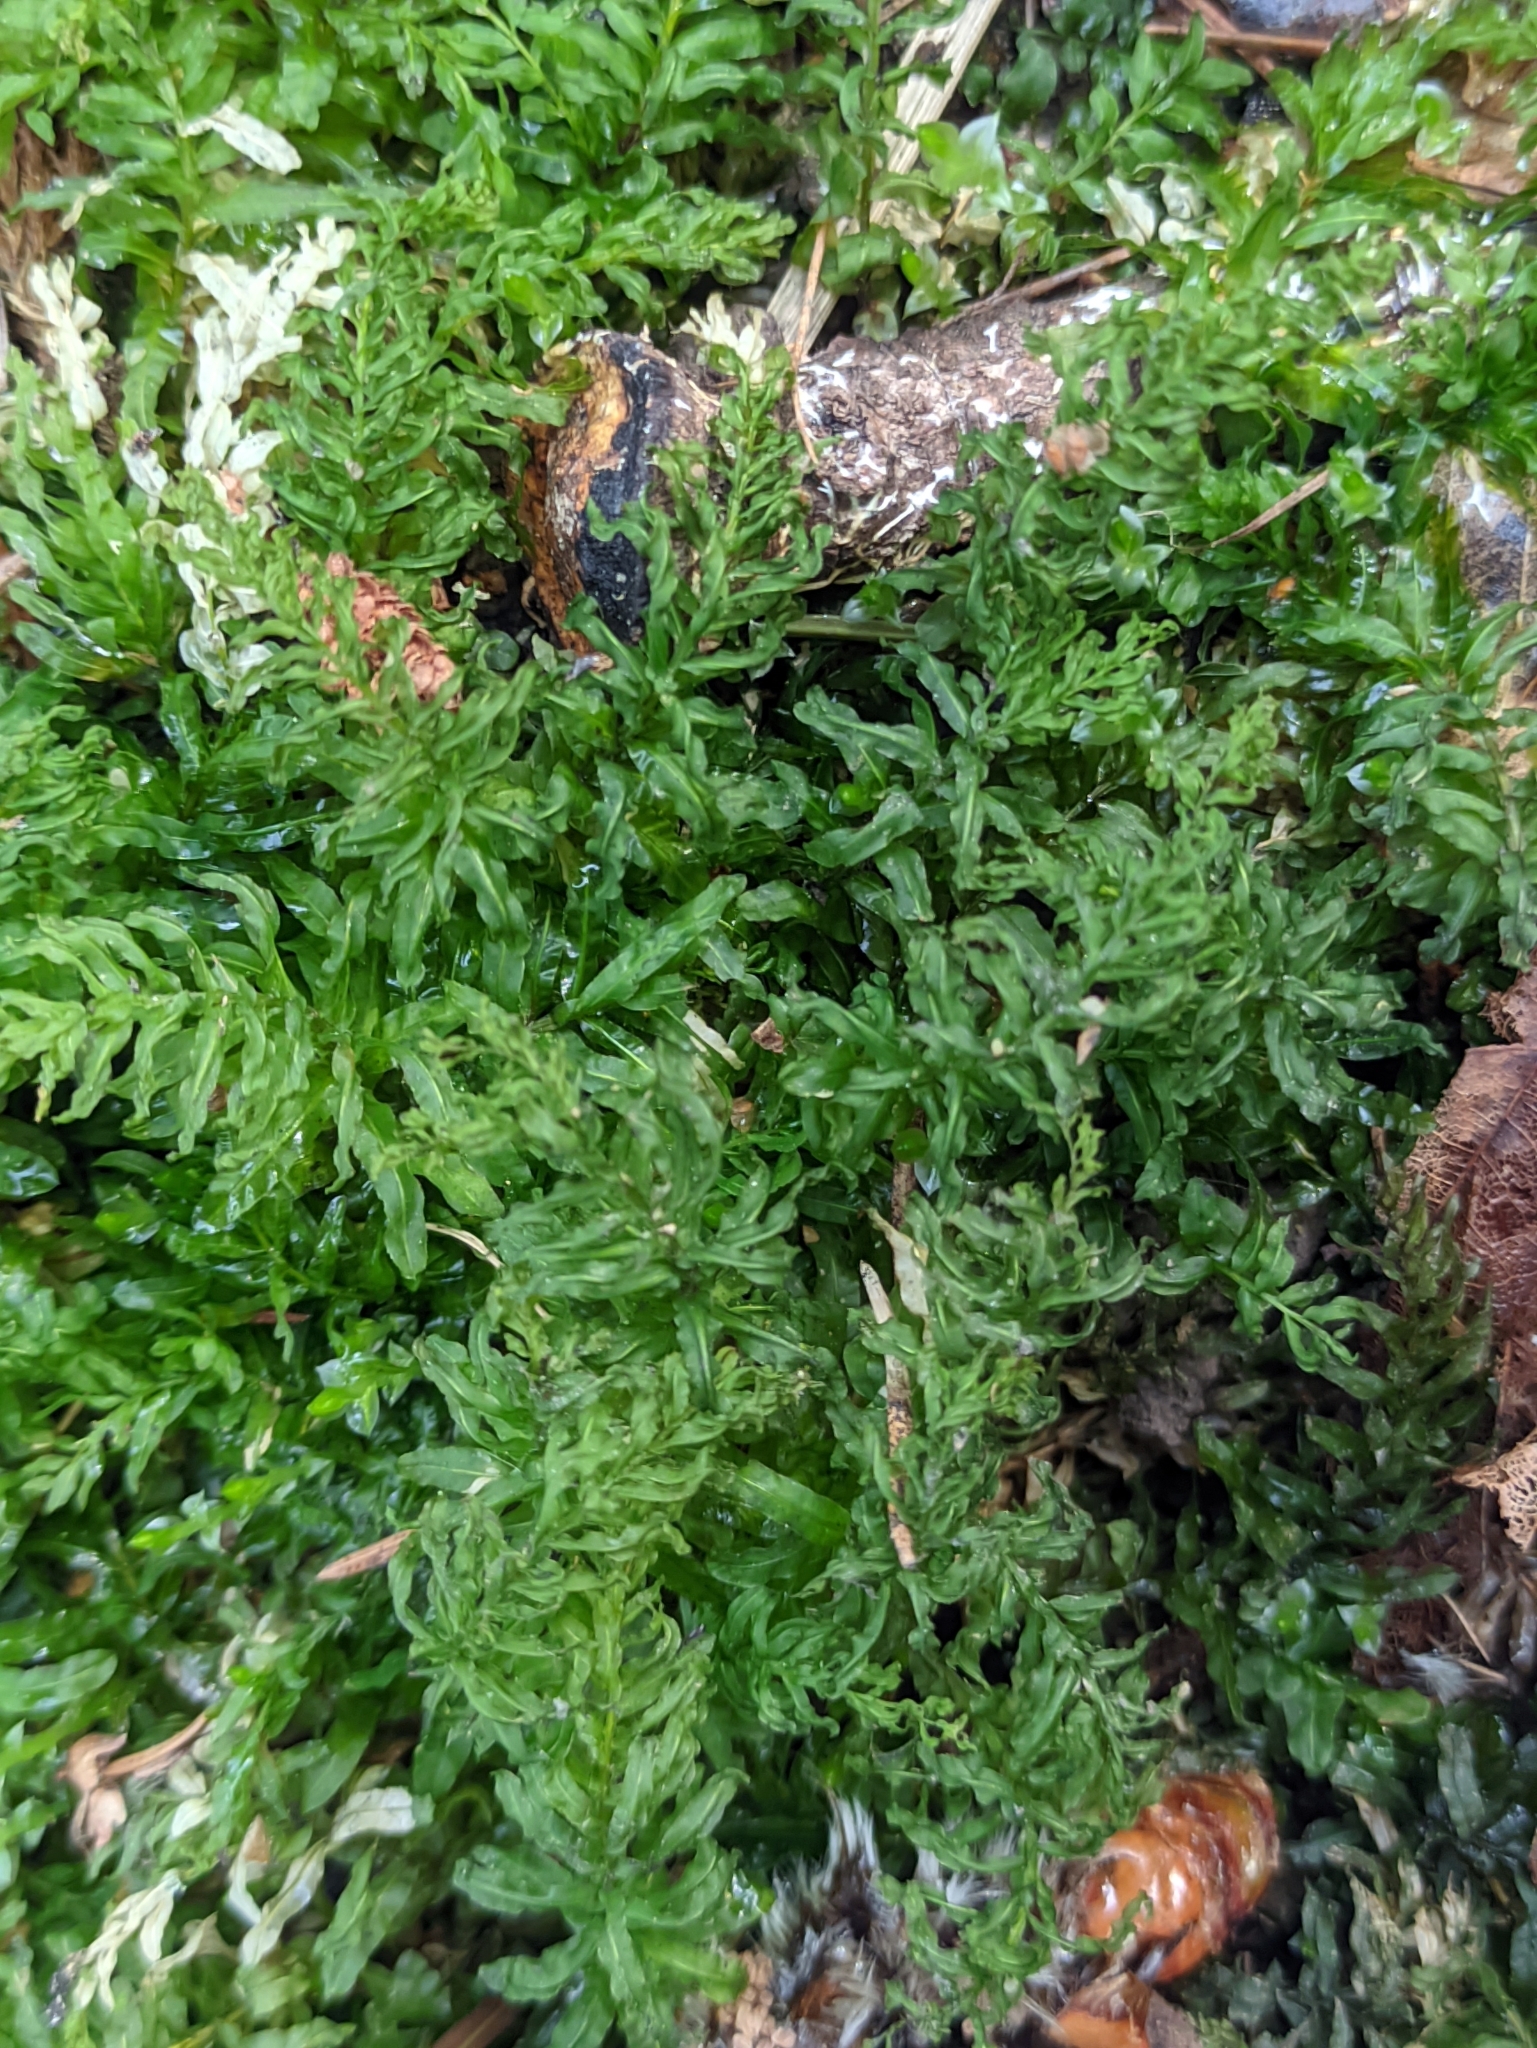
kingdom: Plantae
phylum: Bryophyta
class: Bryopsida
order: Bryales
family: Mniaceae
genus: Plagiomnium
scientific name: Plagiomnium undulatum
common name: Hart's-tongue thyme-moss
